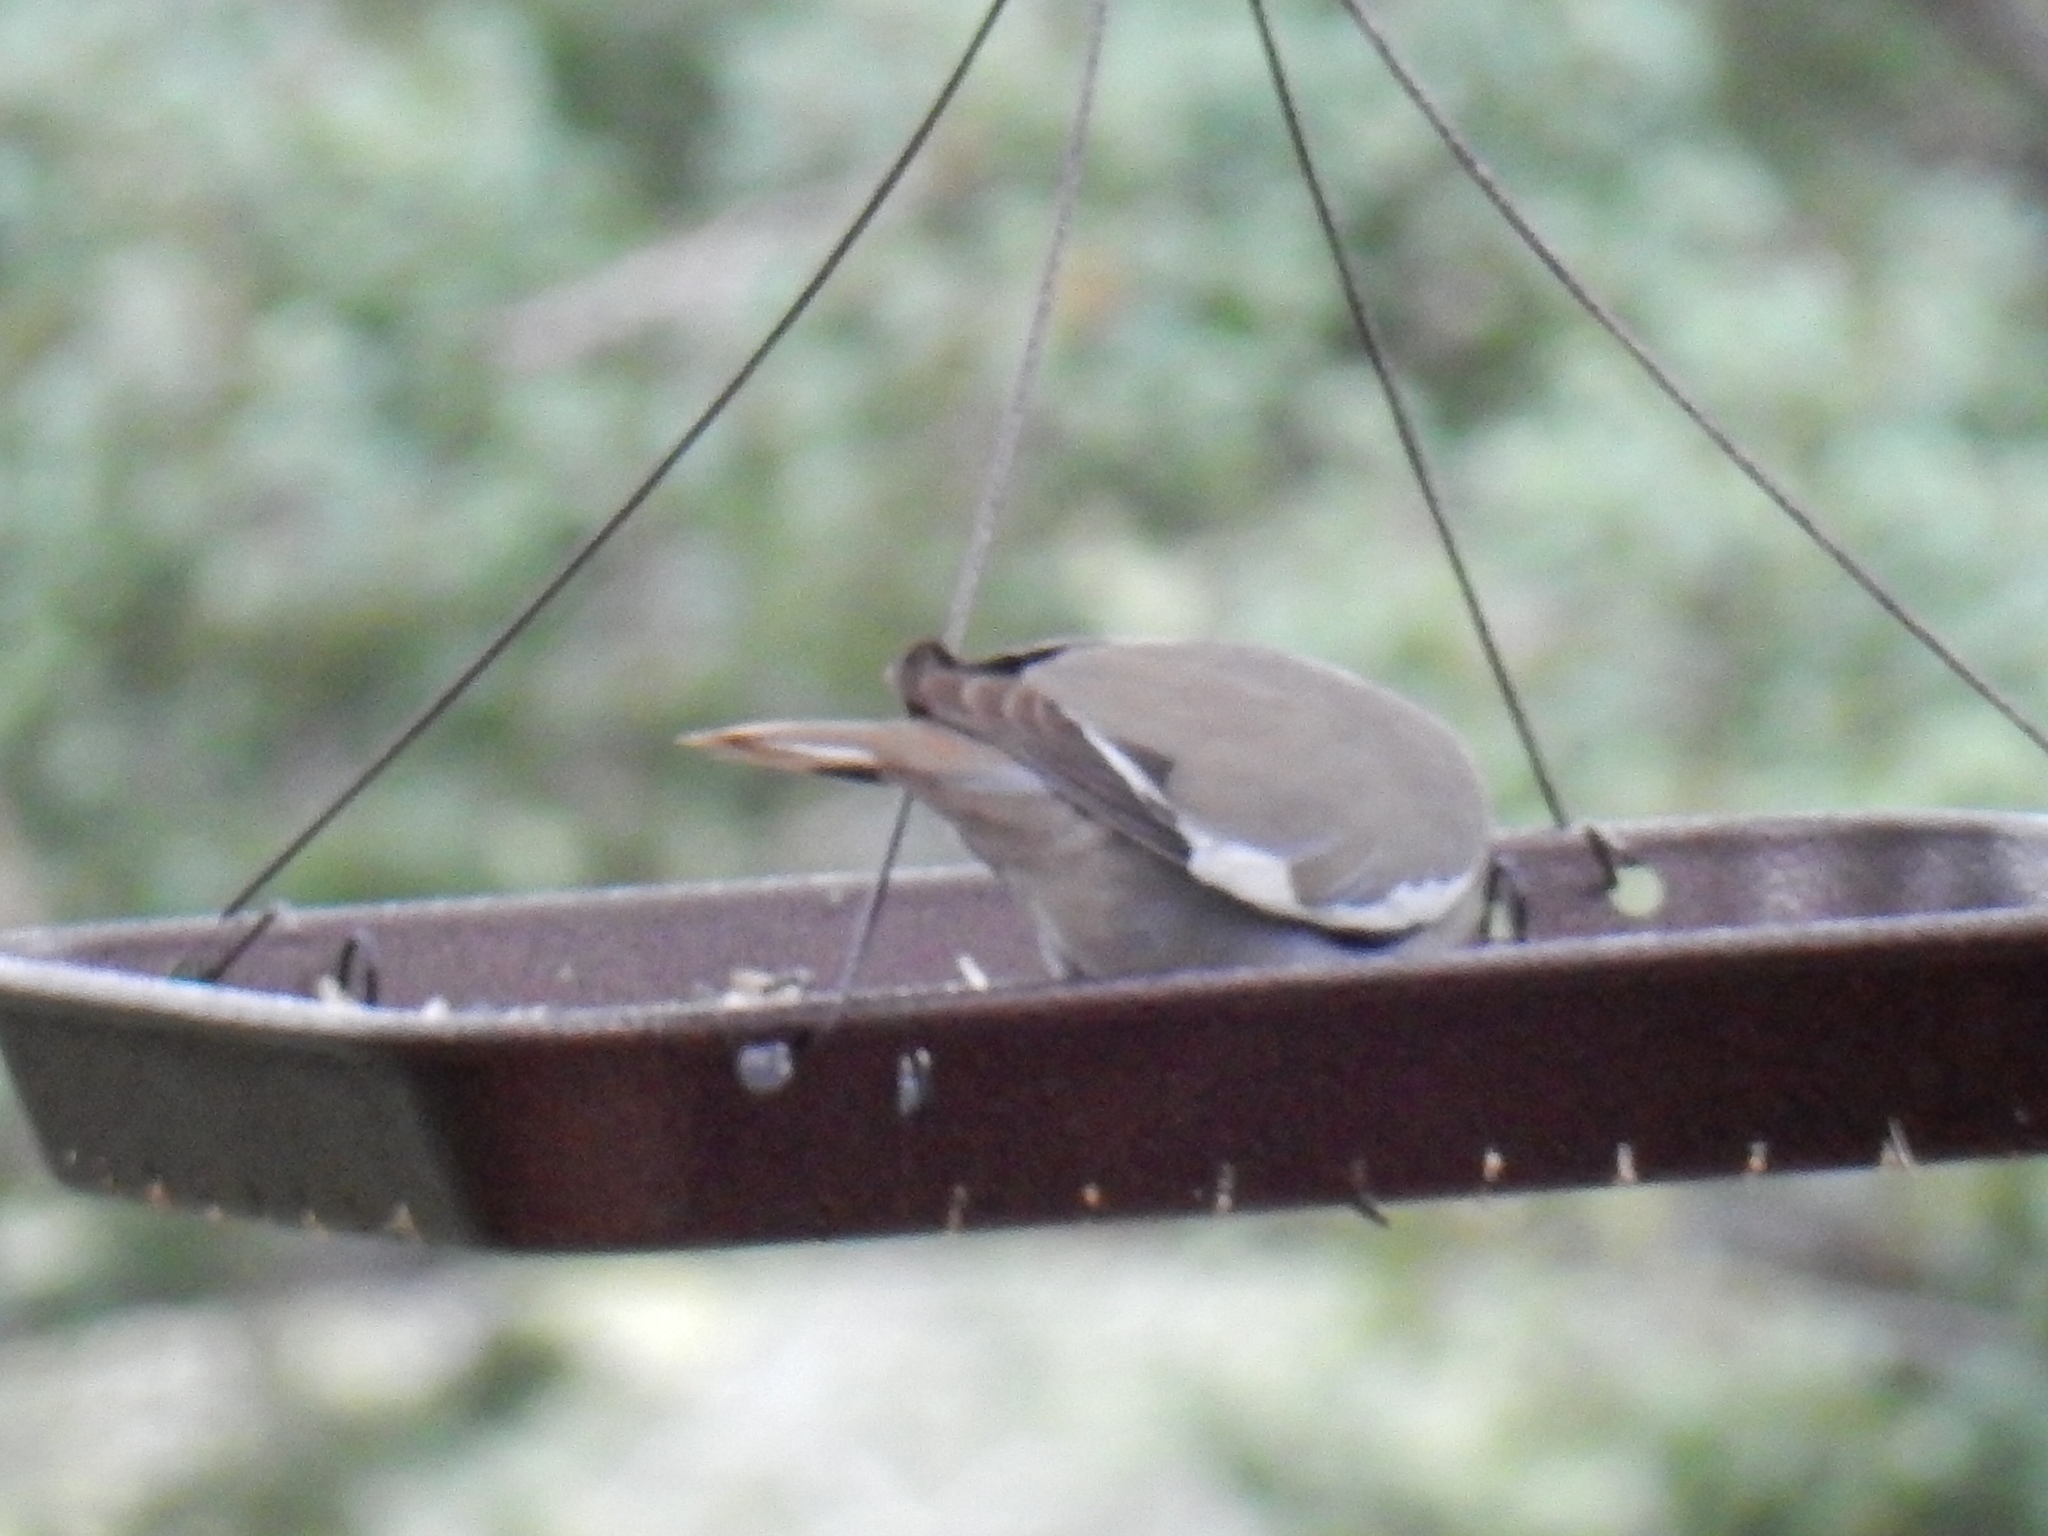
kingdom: Animalia
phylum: Chordata
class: Aves
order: Columbiformes
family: Columbidae
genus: Zenaida
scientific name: Zenaida asiatica
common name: White-winged dove
